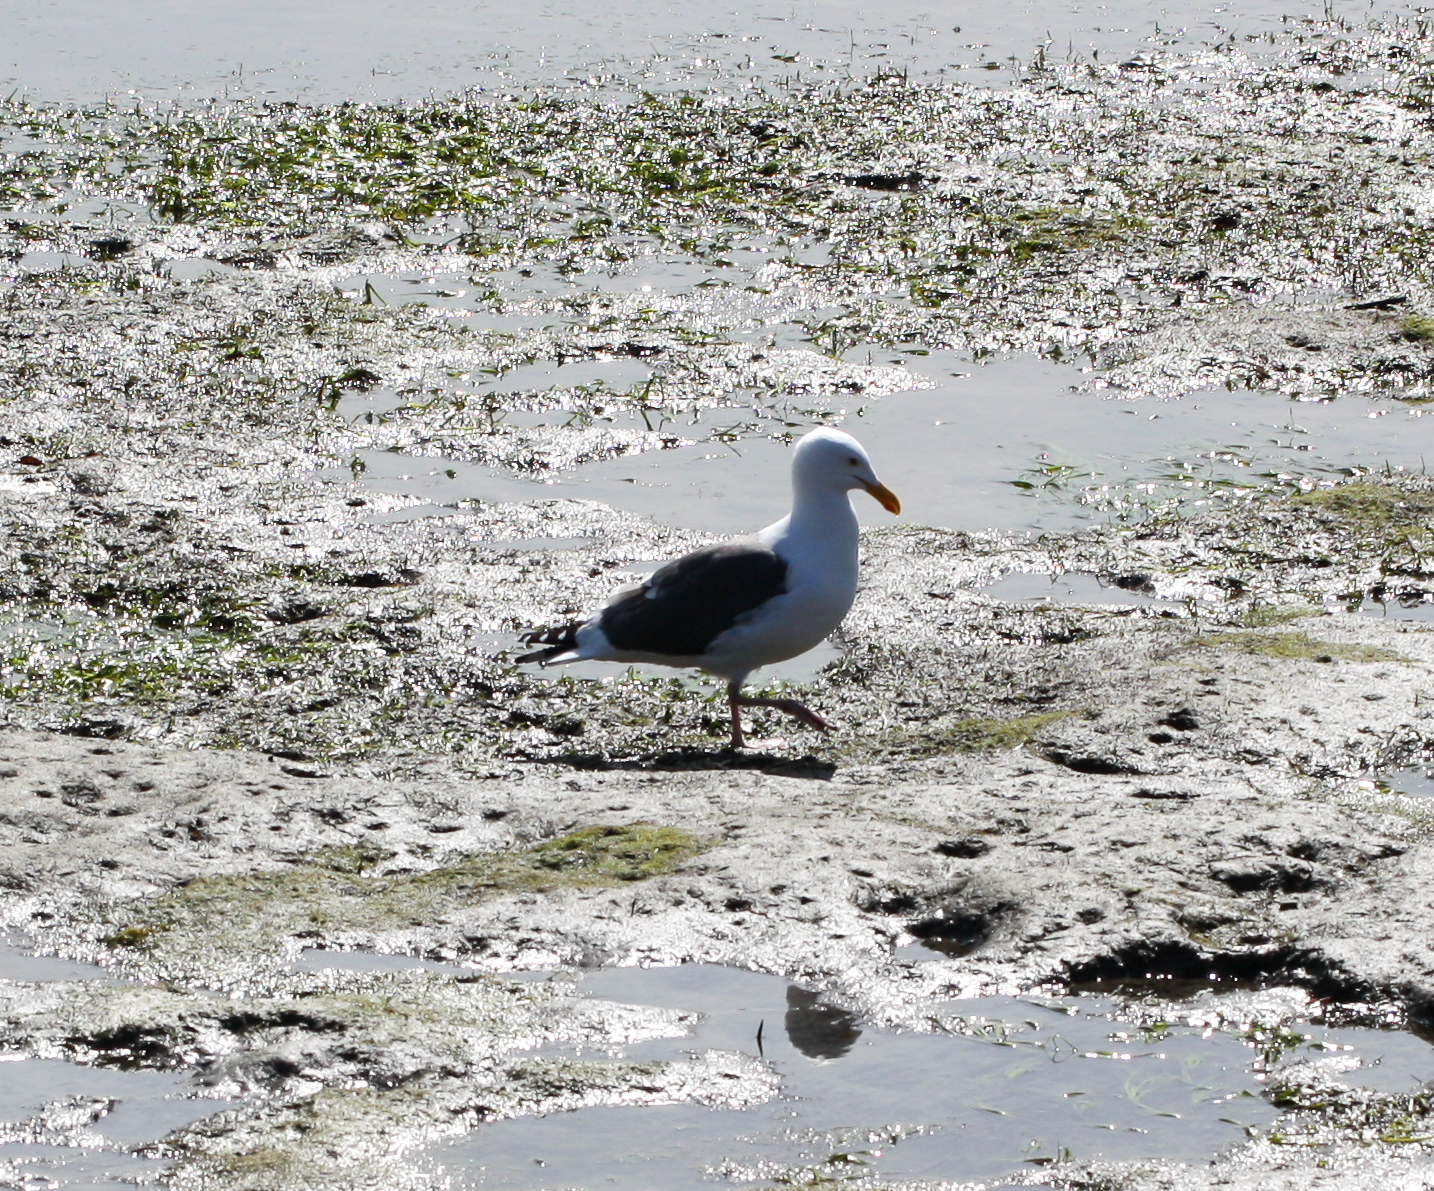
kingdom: Animalia
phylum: Chordata
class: Aves
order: Charadriiformes
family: Laridae
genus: Larus
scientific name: Larus occidentalis
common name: Western gull
